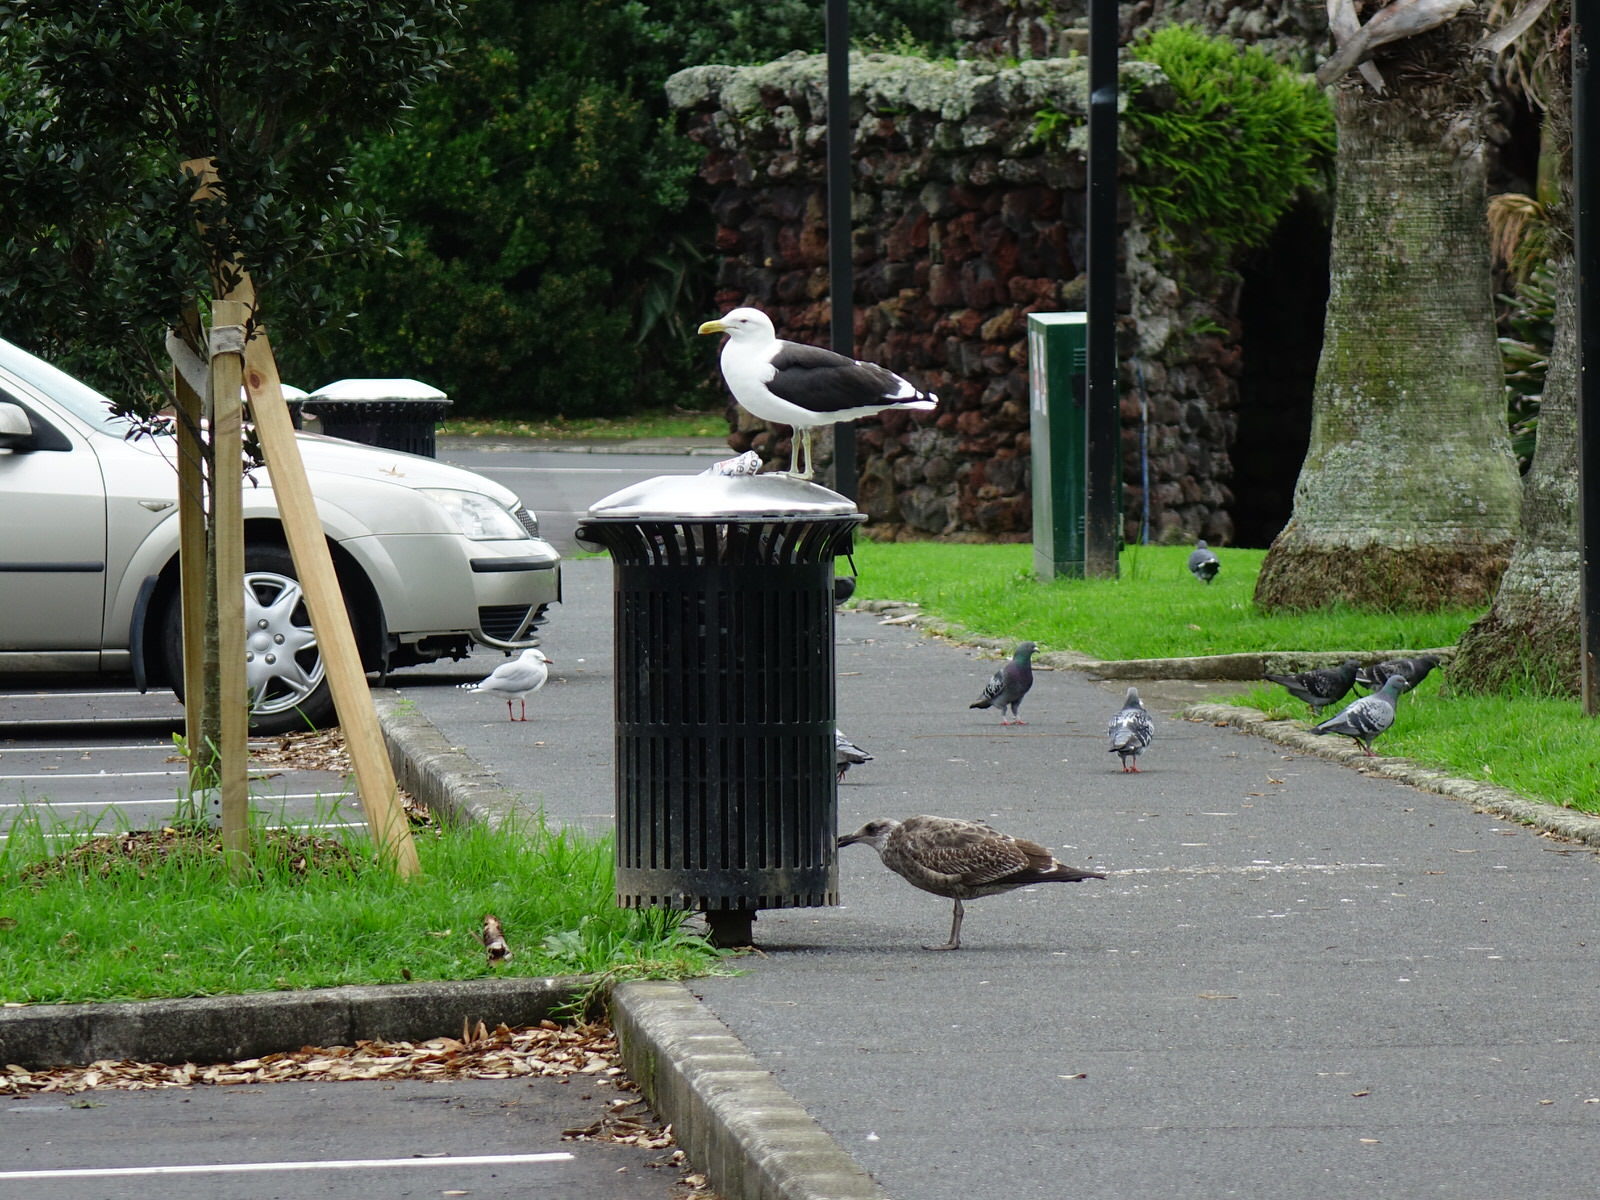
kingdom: Animalia
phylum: Chordata
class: Aves
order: Charadriiformes
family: Laridae
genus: Larus
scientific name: Larus dominicanus
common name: Kelp gull
